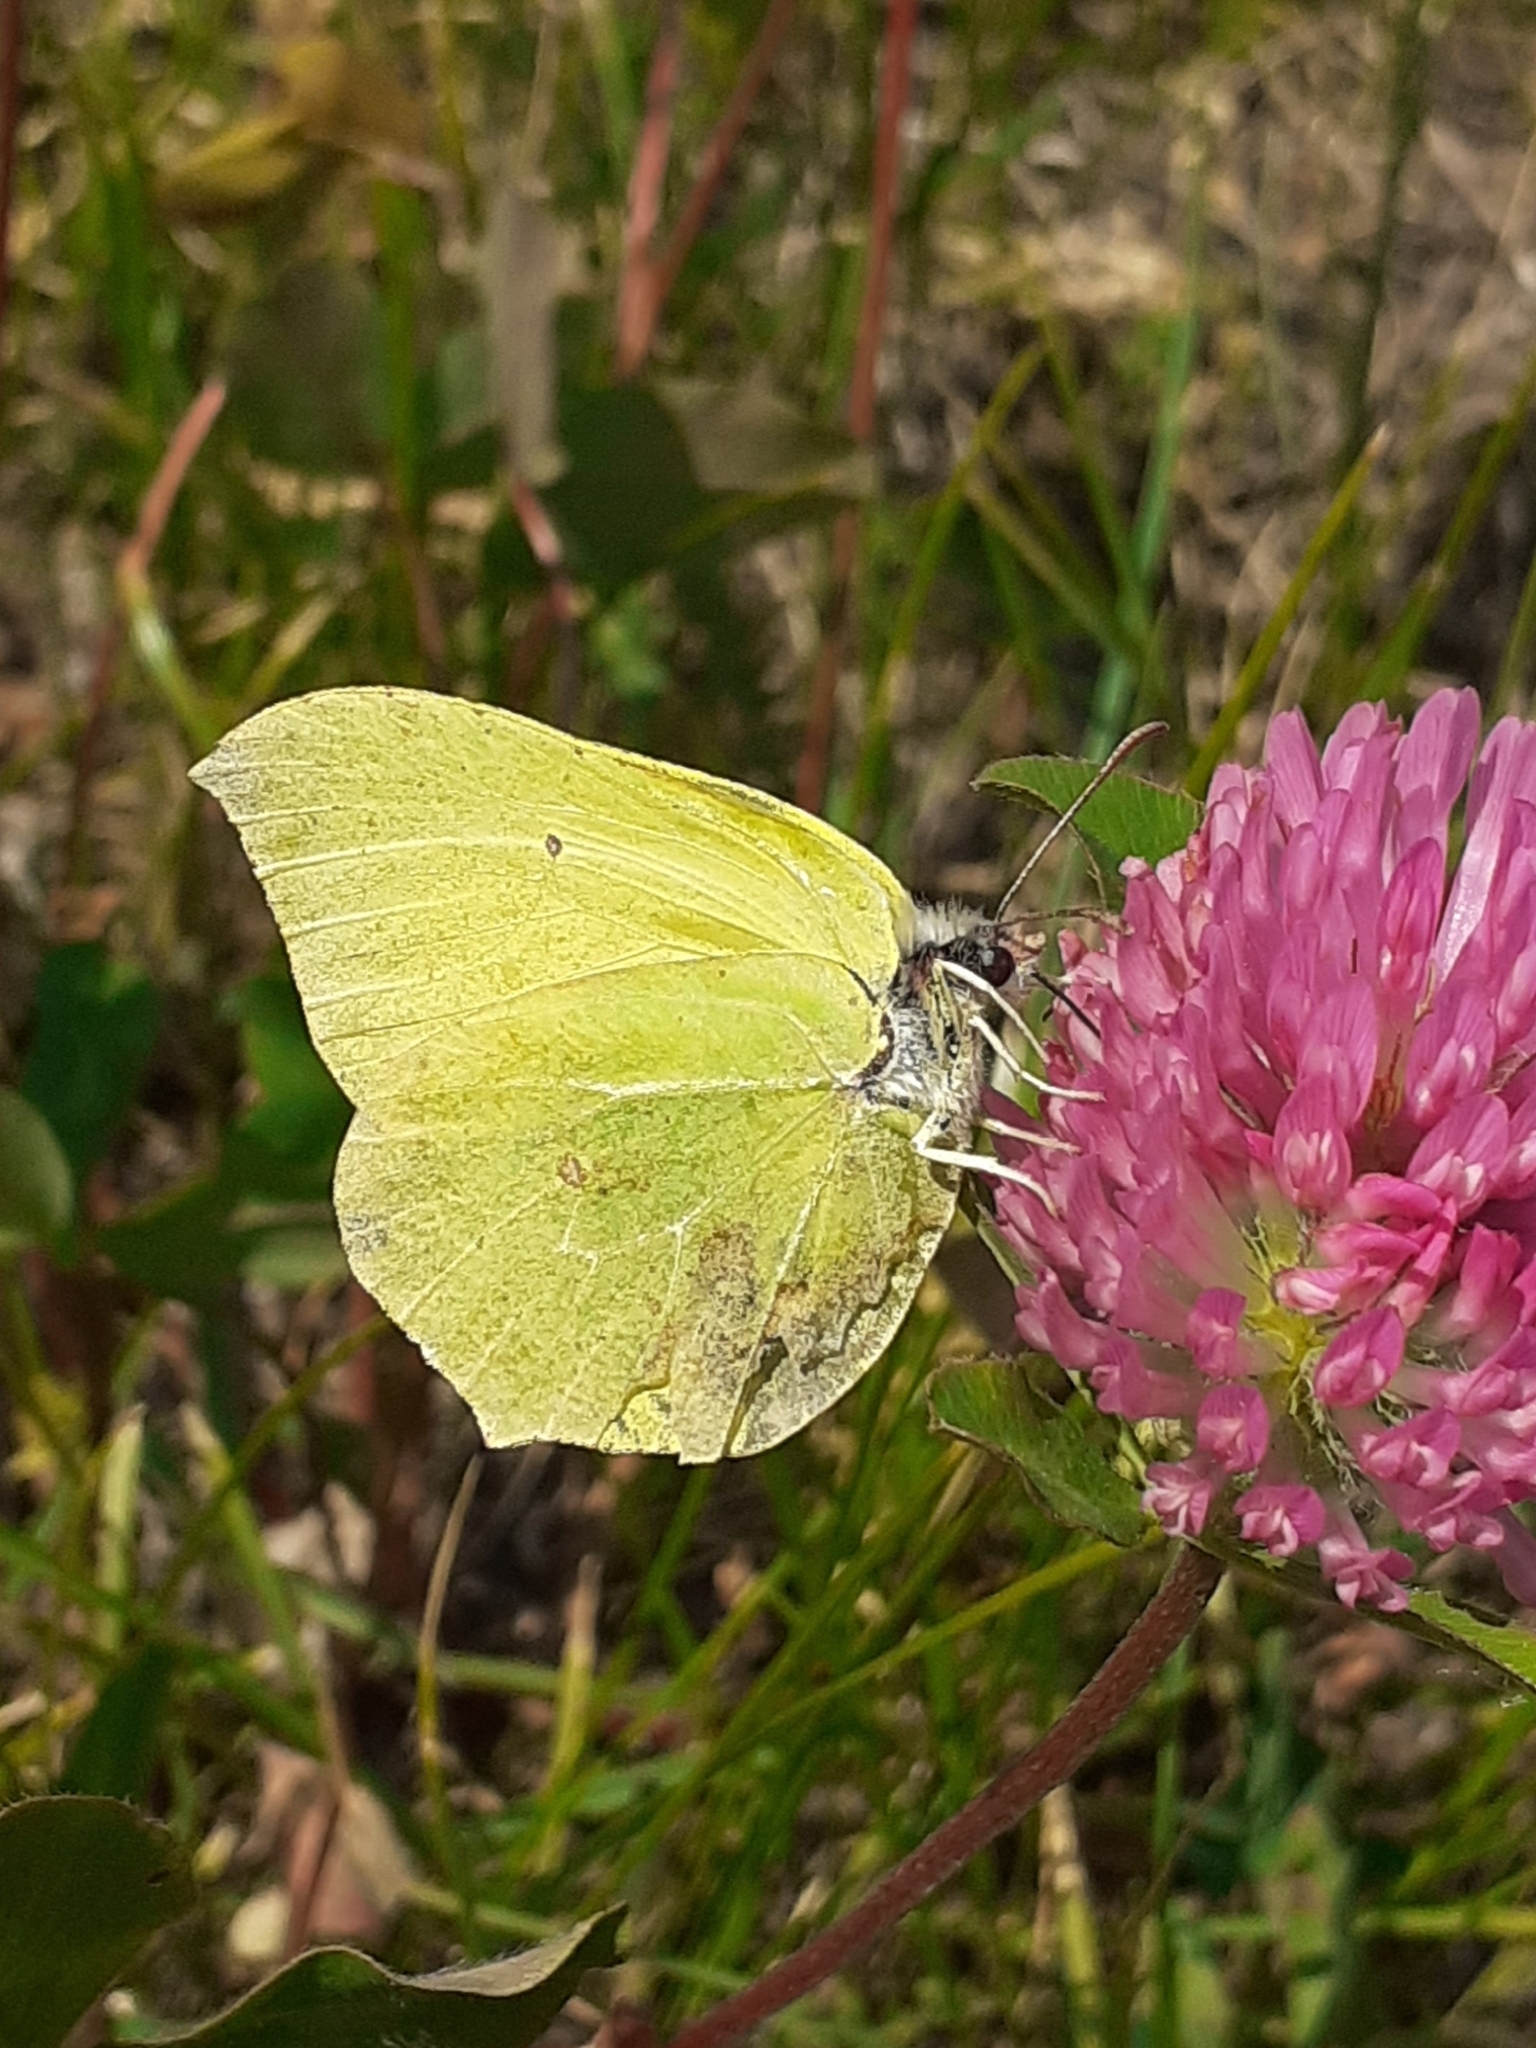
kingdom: Animalia
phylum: Arthropoda
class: Insecta
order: Lepidoptera
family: Pieridae
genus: Gonepteryx
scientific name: Gonepteryx rhamni
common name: Brimstone
